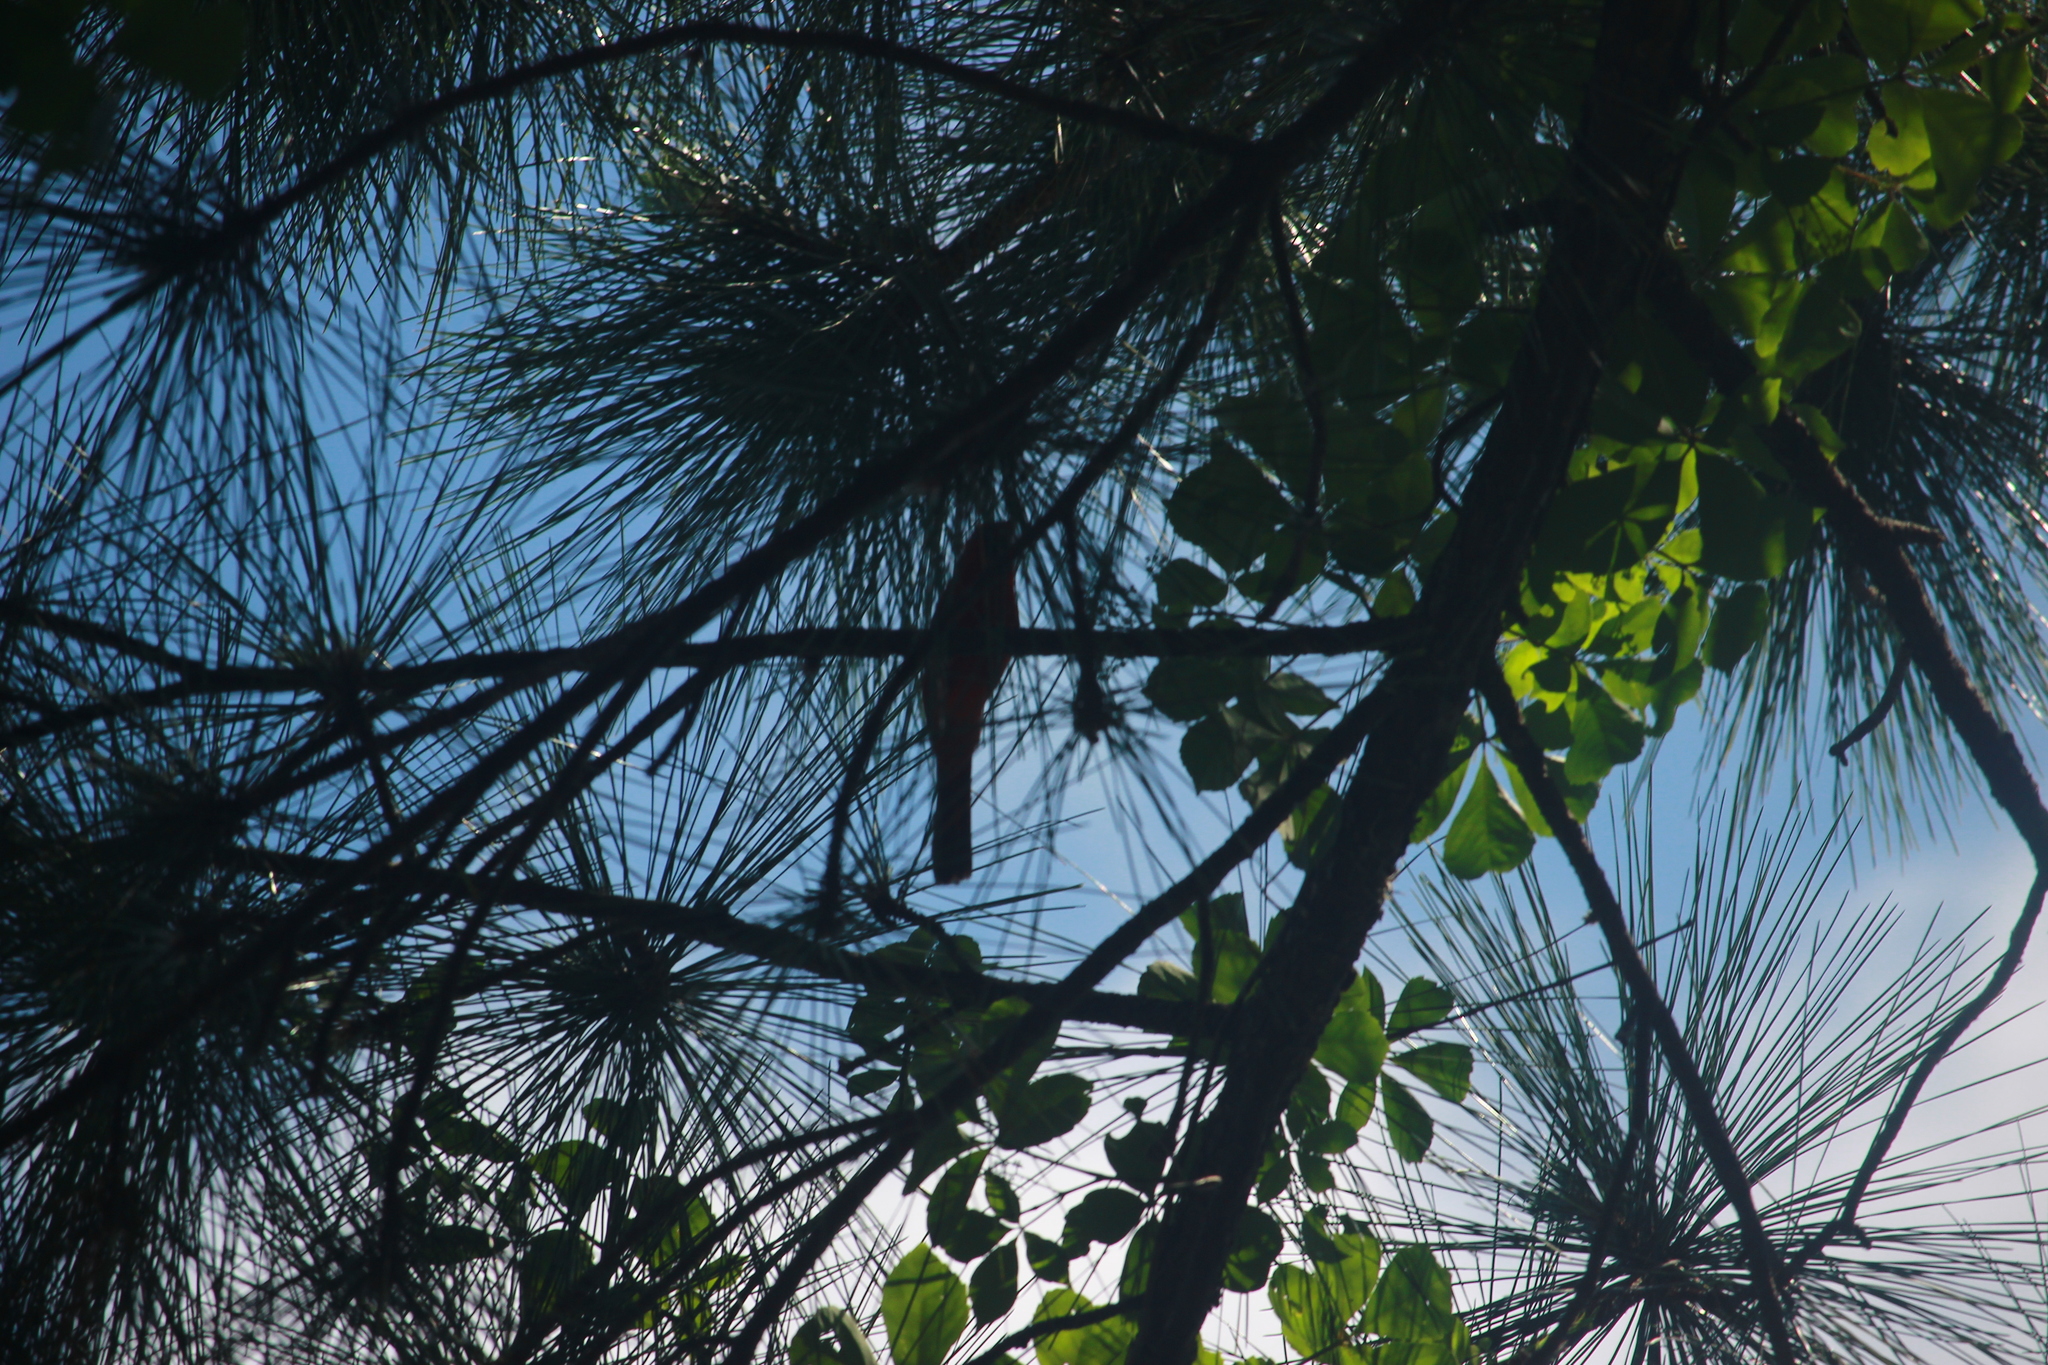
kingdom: Animalia
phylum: Chordata
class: Aves
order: Passeriformes
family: Cardinalidae
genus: Cardinalis
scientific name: Cardinalis cardinalis
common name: Northern cardinal
